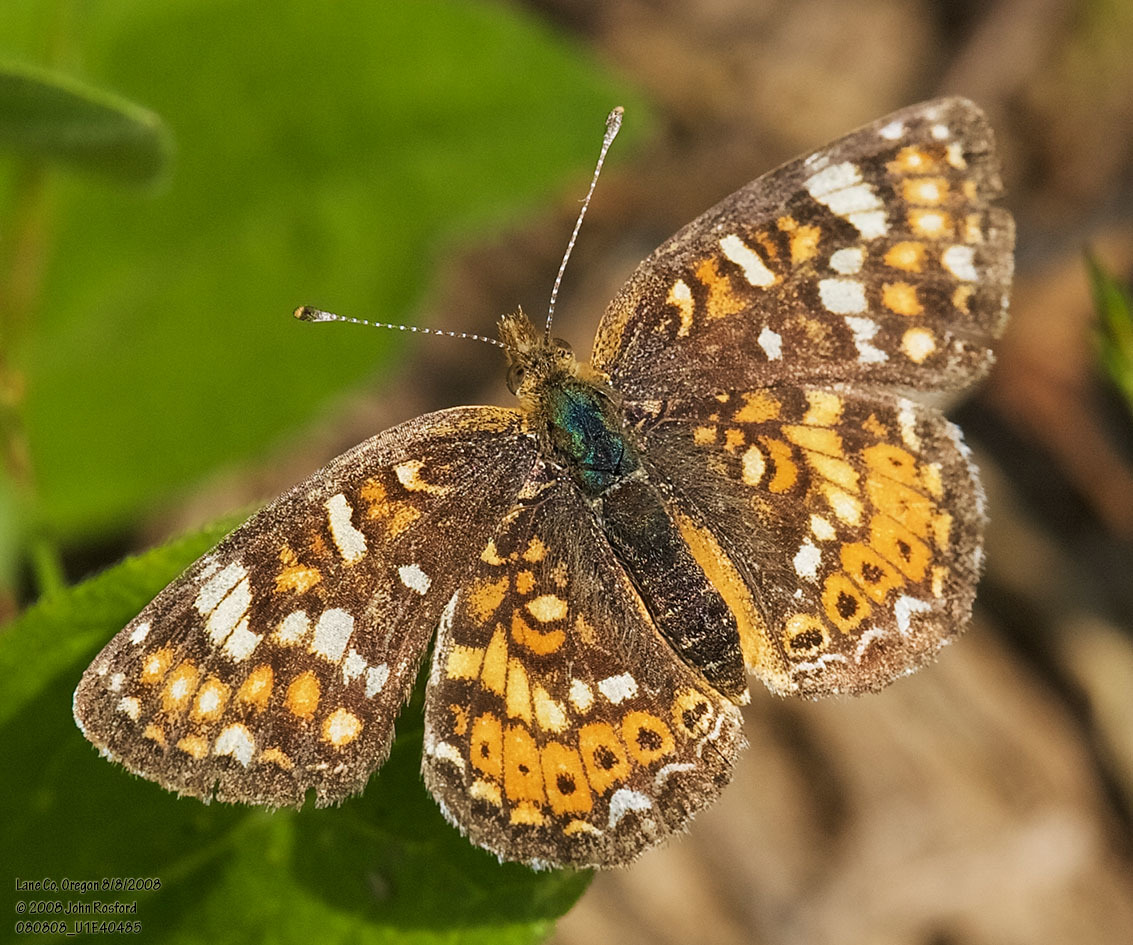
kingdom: Animalia
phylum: Arthropoda
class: Insecta
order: Lepidoptera
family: Nymphalidae
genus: Phyciodes
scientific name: Phyciodes tharos
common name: Pearl crescent
